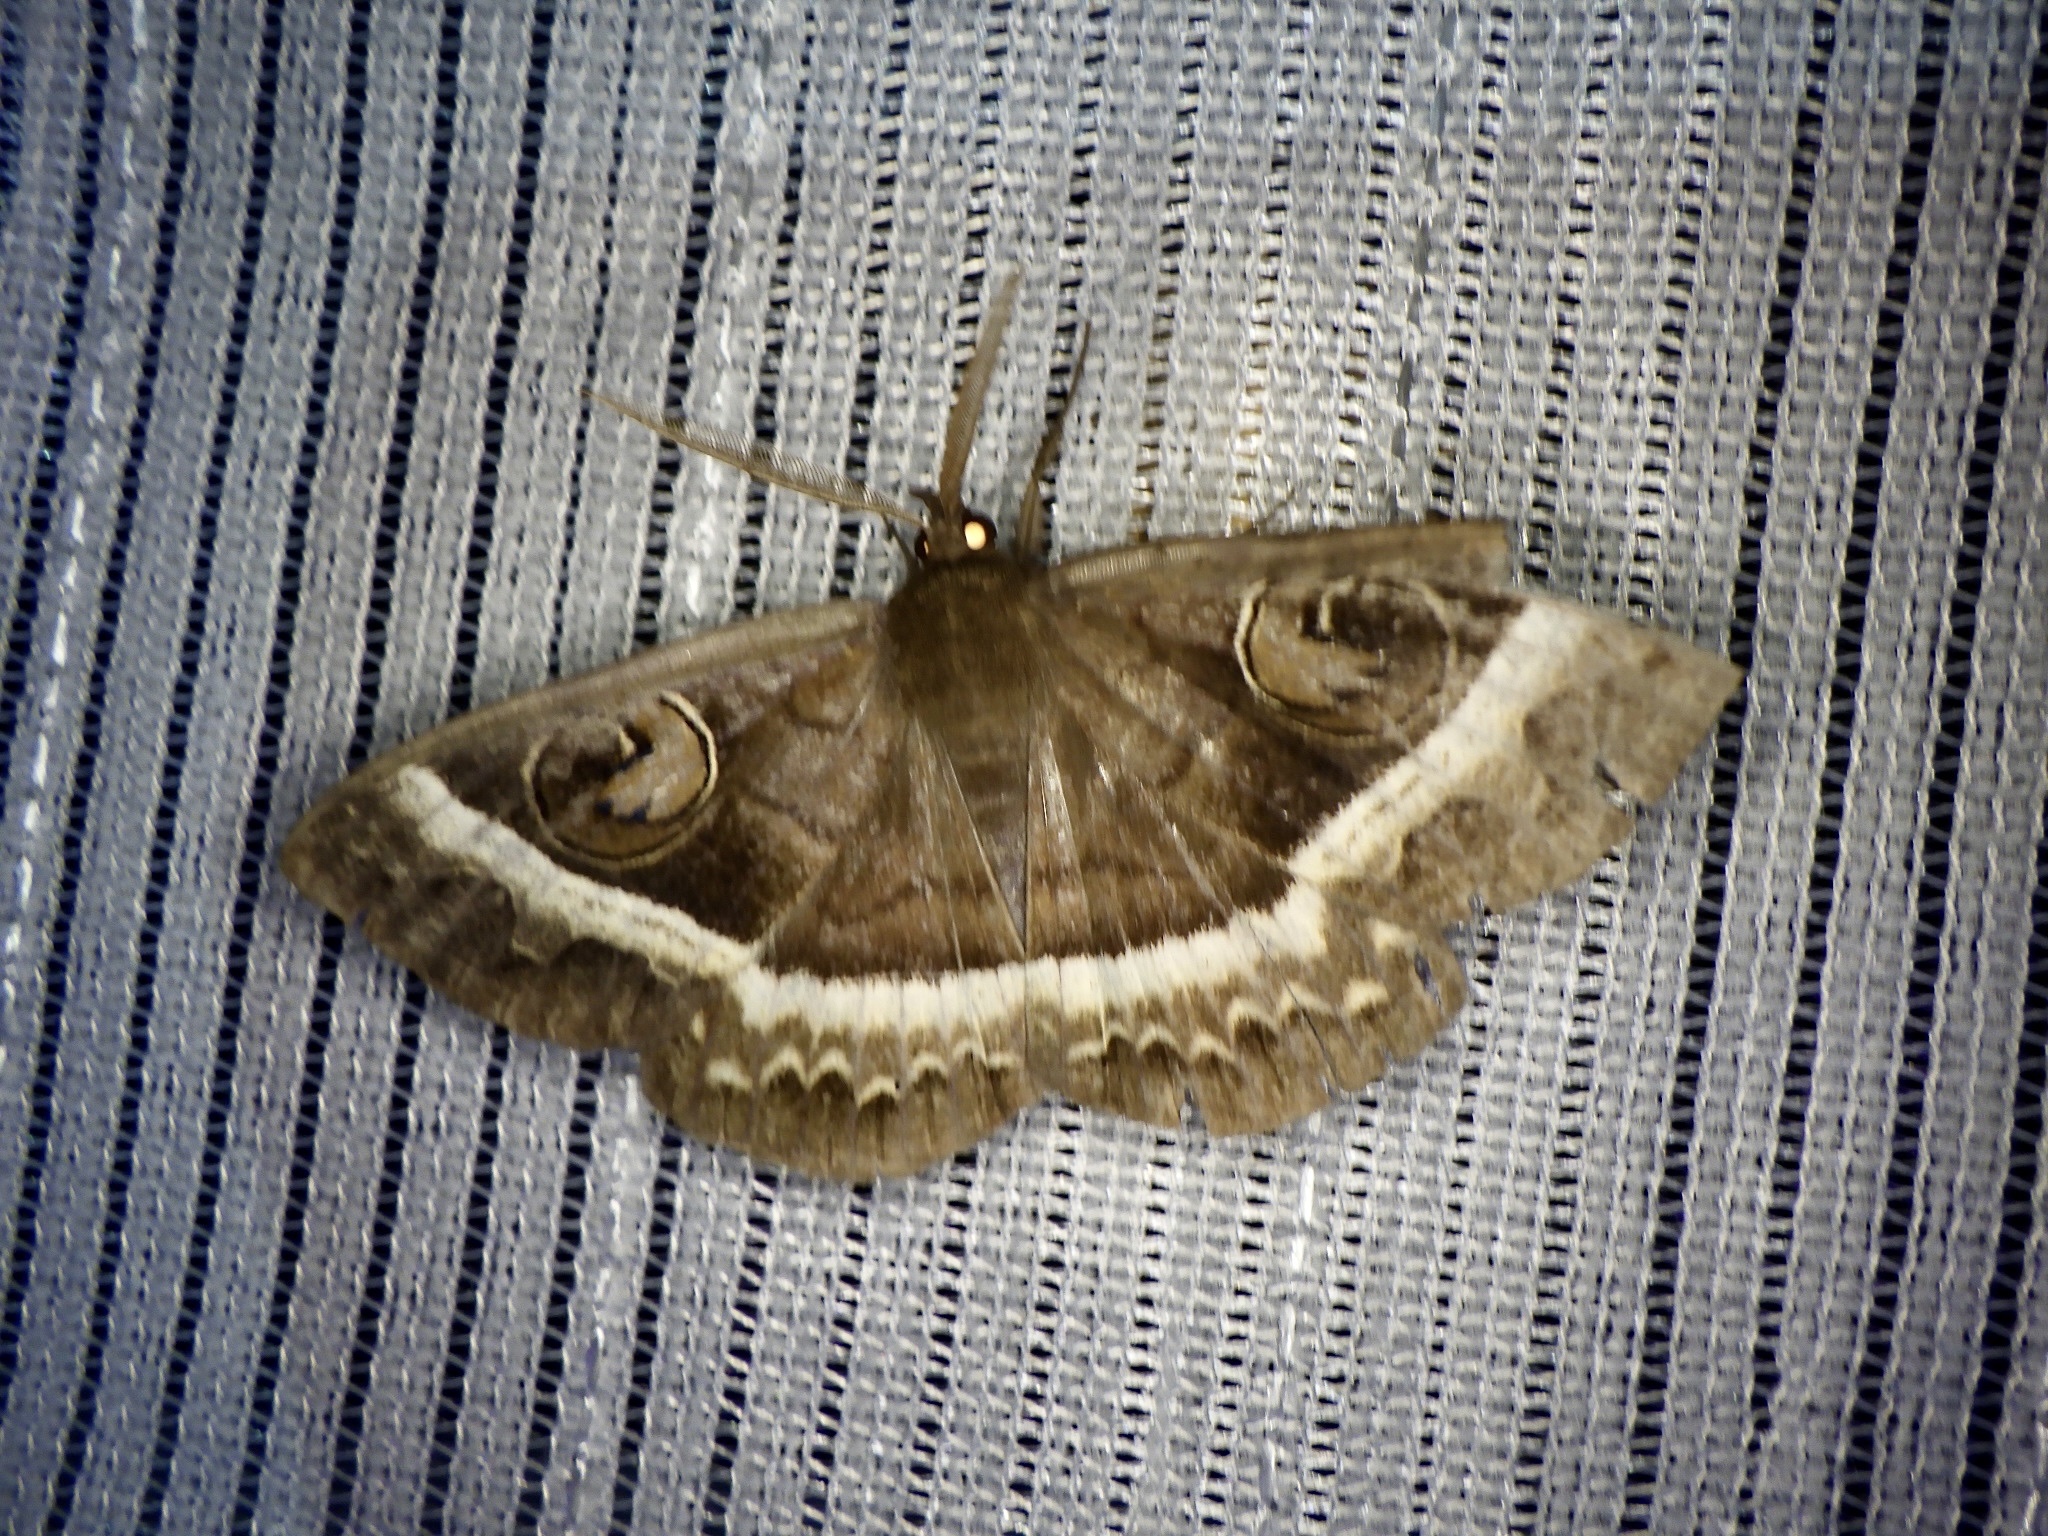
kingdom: Animalia
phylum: Arthropoda
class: Insecta
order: Lepidoptera
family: Erebidae
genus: Metopta
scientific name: Metopta rectifasciata
